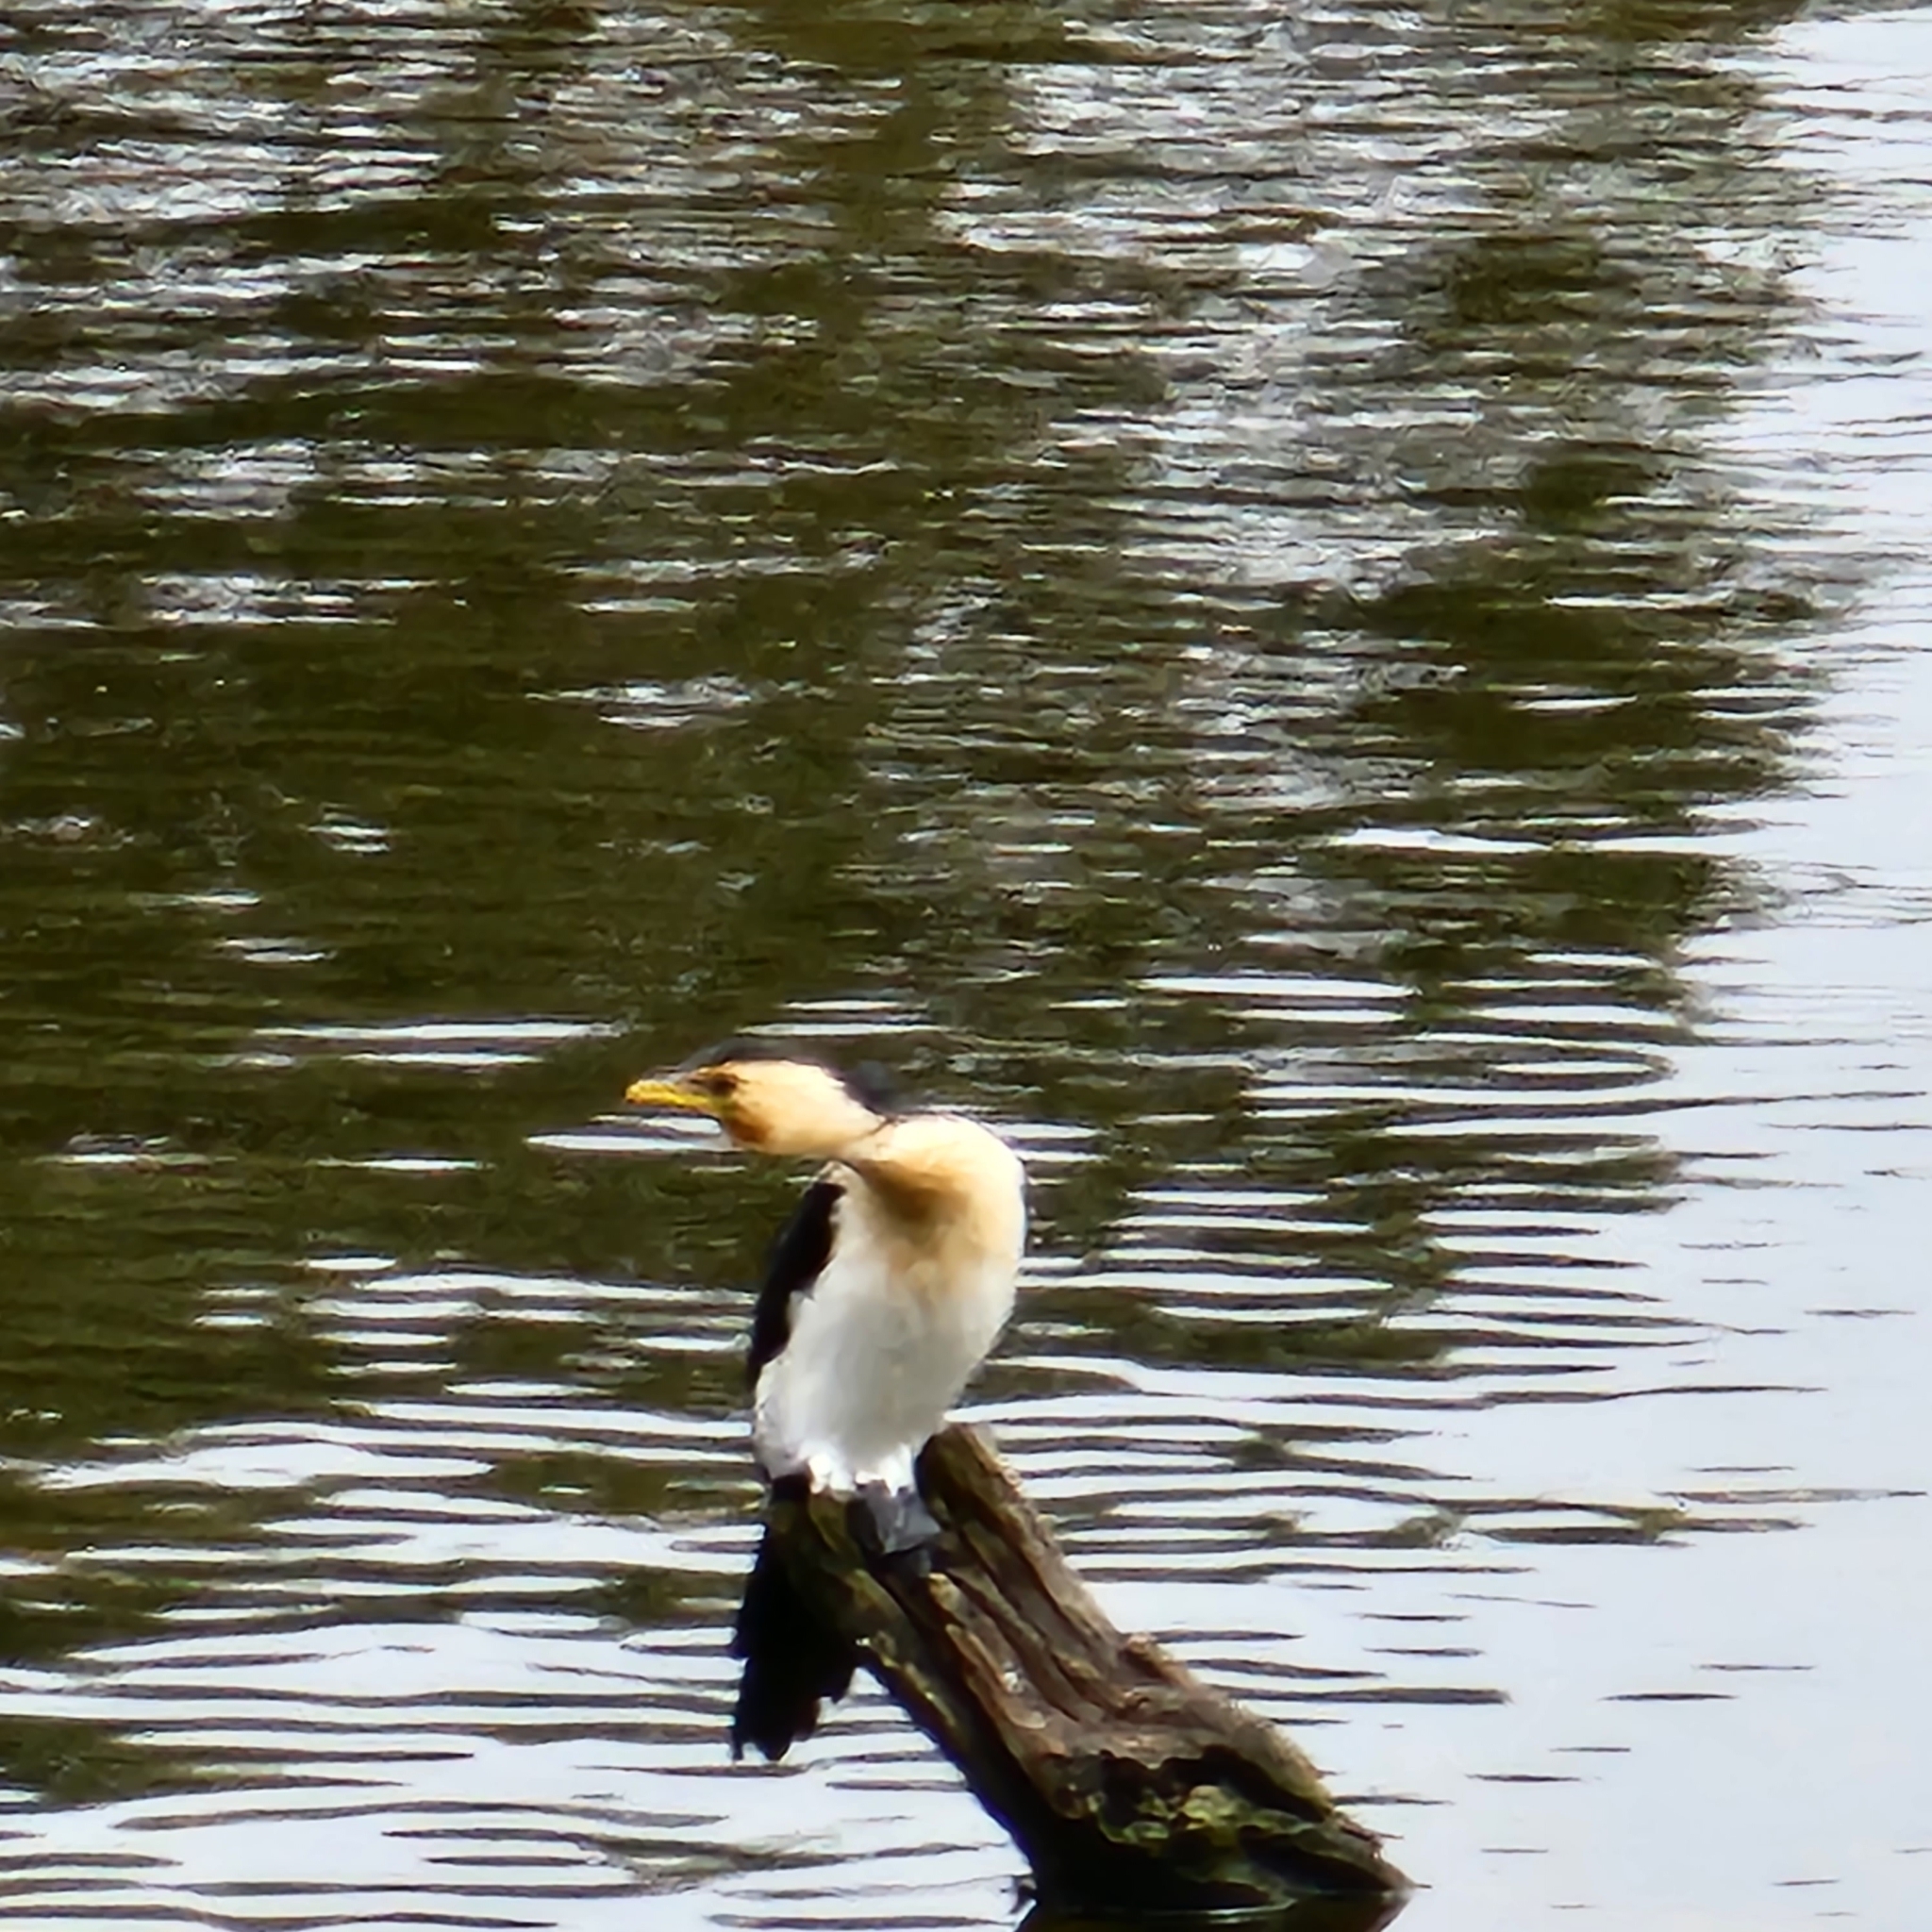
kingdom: Animalia
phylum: Chordata
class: Aves
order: Suliformes
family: Phalacrocoracidae
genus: Microcarbo
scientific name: Microcarbo melanoleucos
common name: Little pied cormorant
